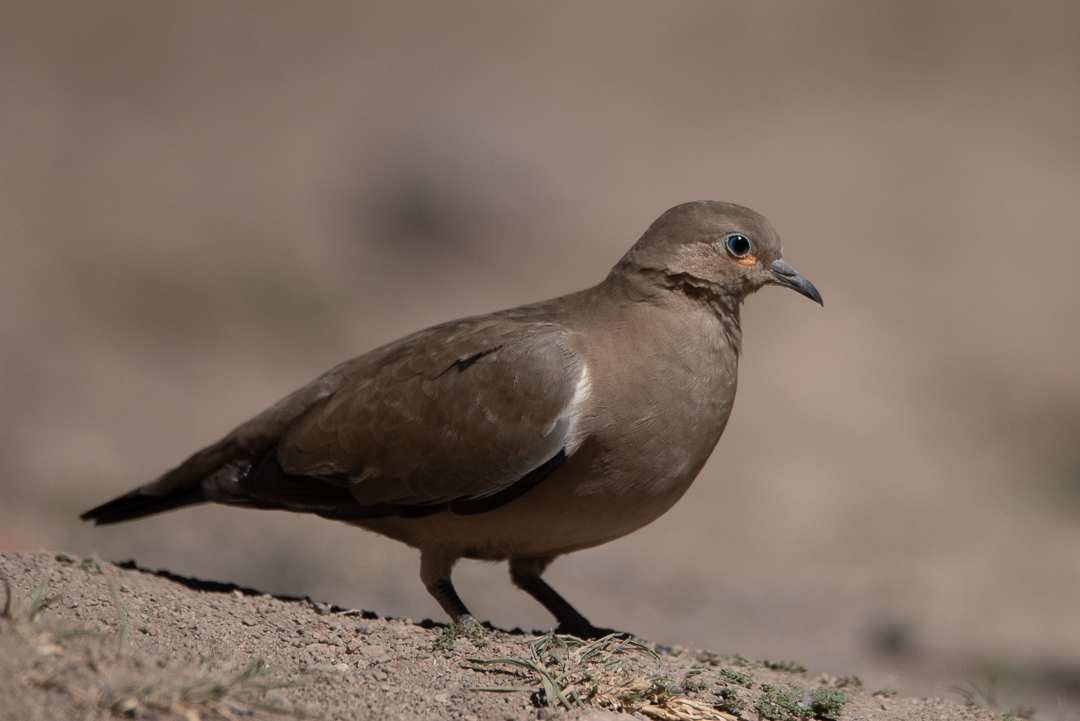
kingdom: Animalia
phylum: Chordata
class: Aves
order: Columbiformes
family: Columbidae
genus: Metriopelia
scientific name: Metriopelia melanoptera
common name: Black-winged ground dove
